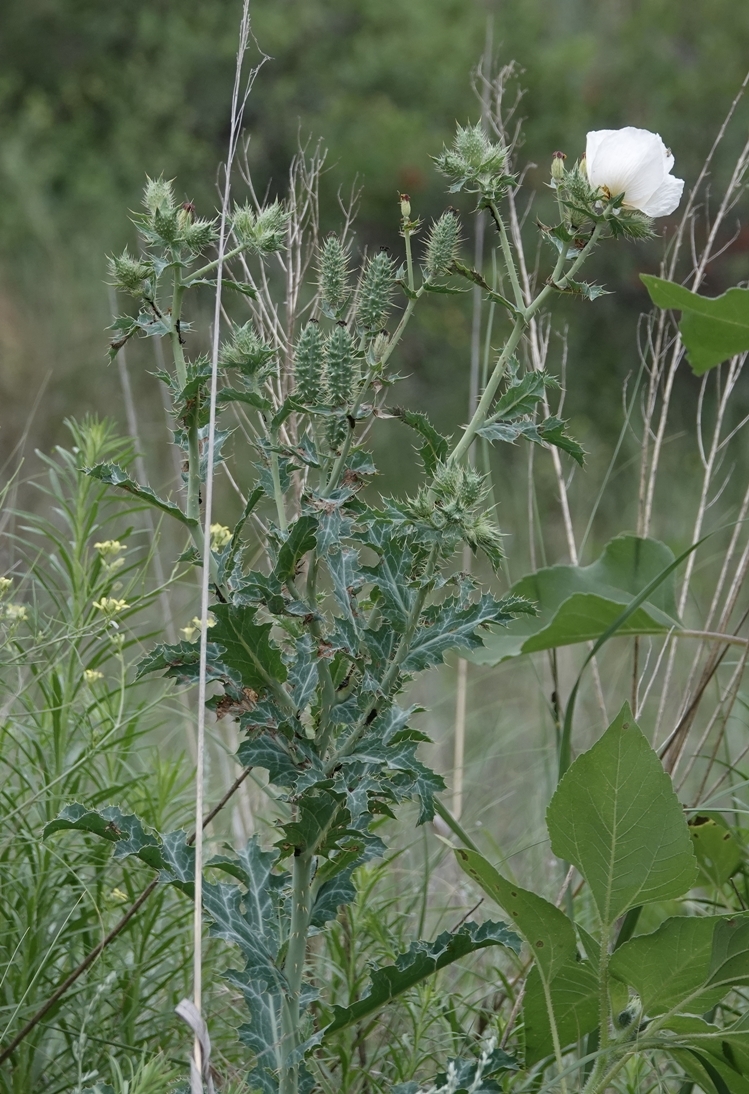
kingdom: Plantae
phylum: Tracheophyta
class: Magnoliopsida
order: Ranunculales
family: Papaveraceae
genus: Argemone
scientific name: Argemone polyanthemos
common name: Plains prickly-poppy
